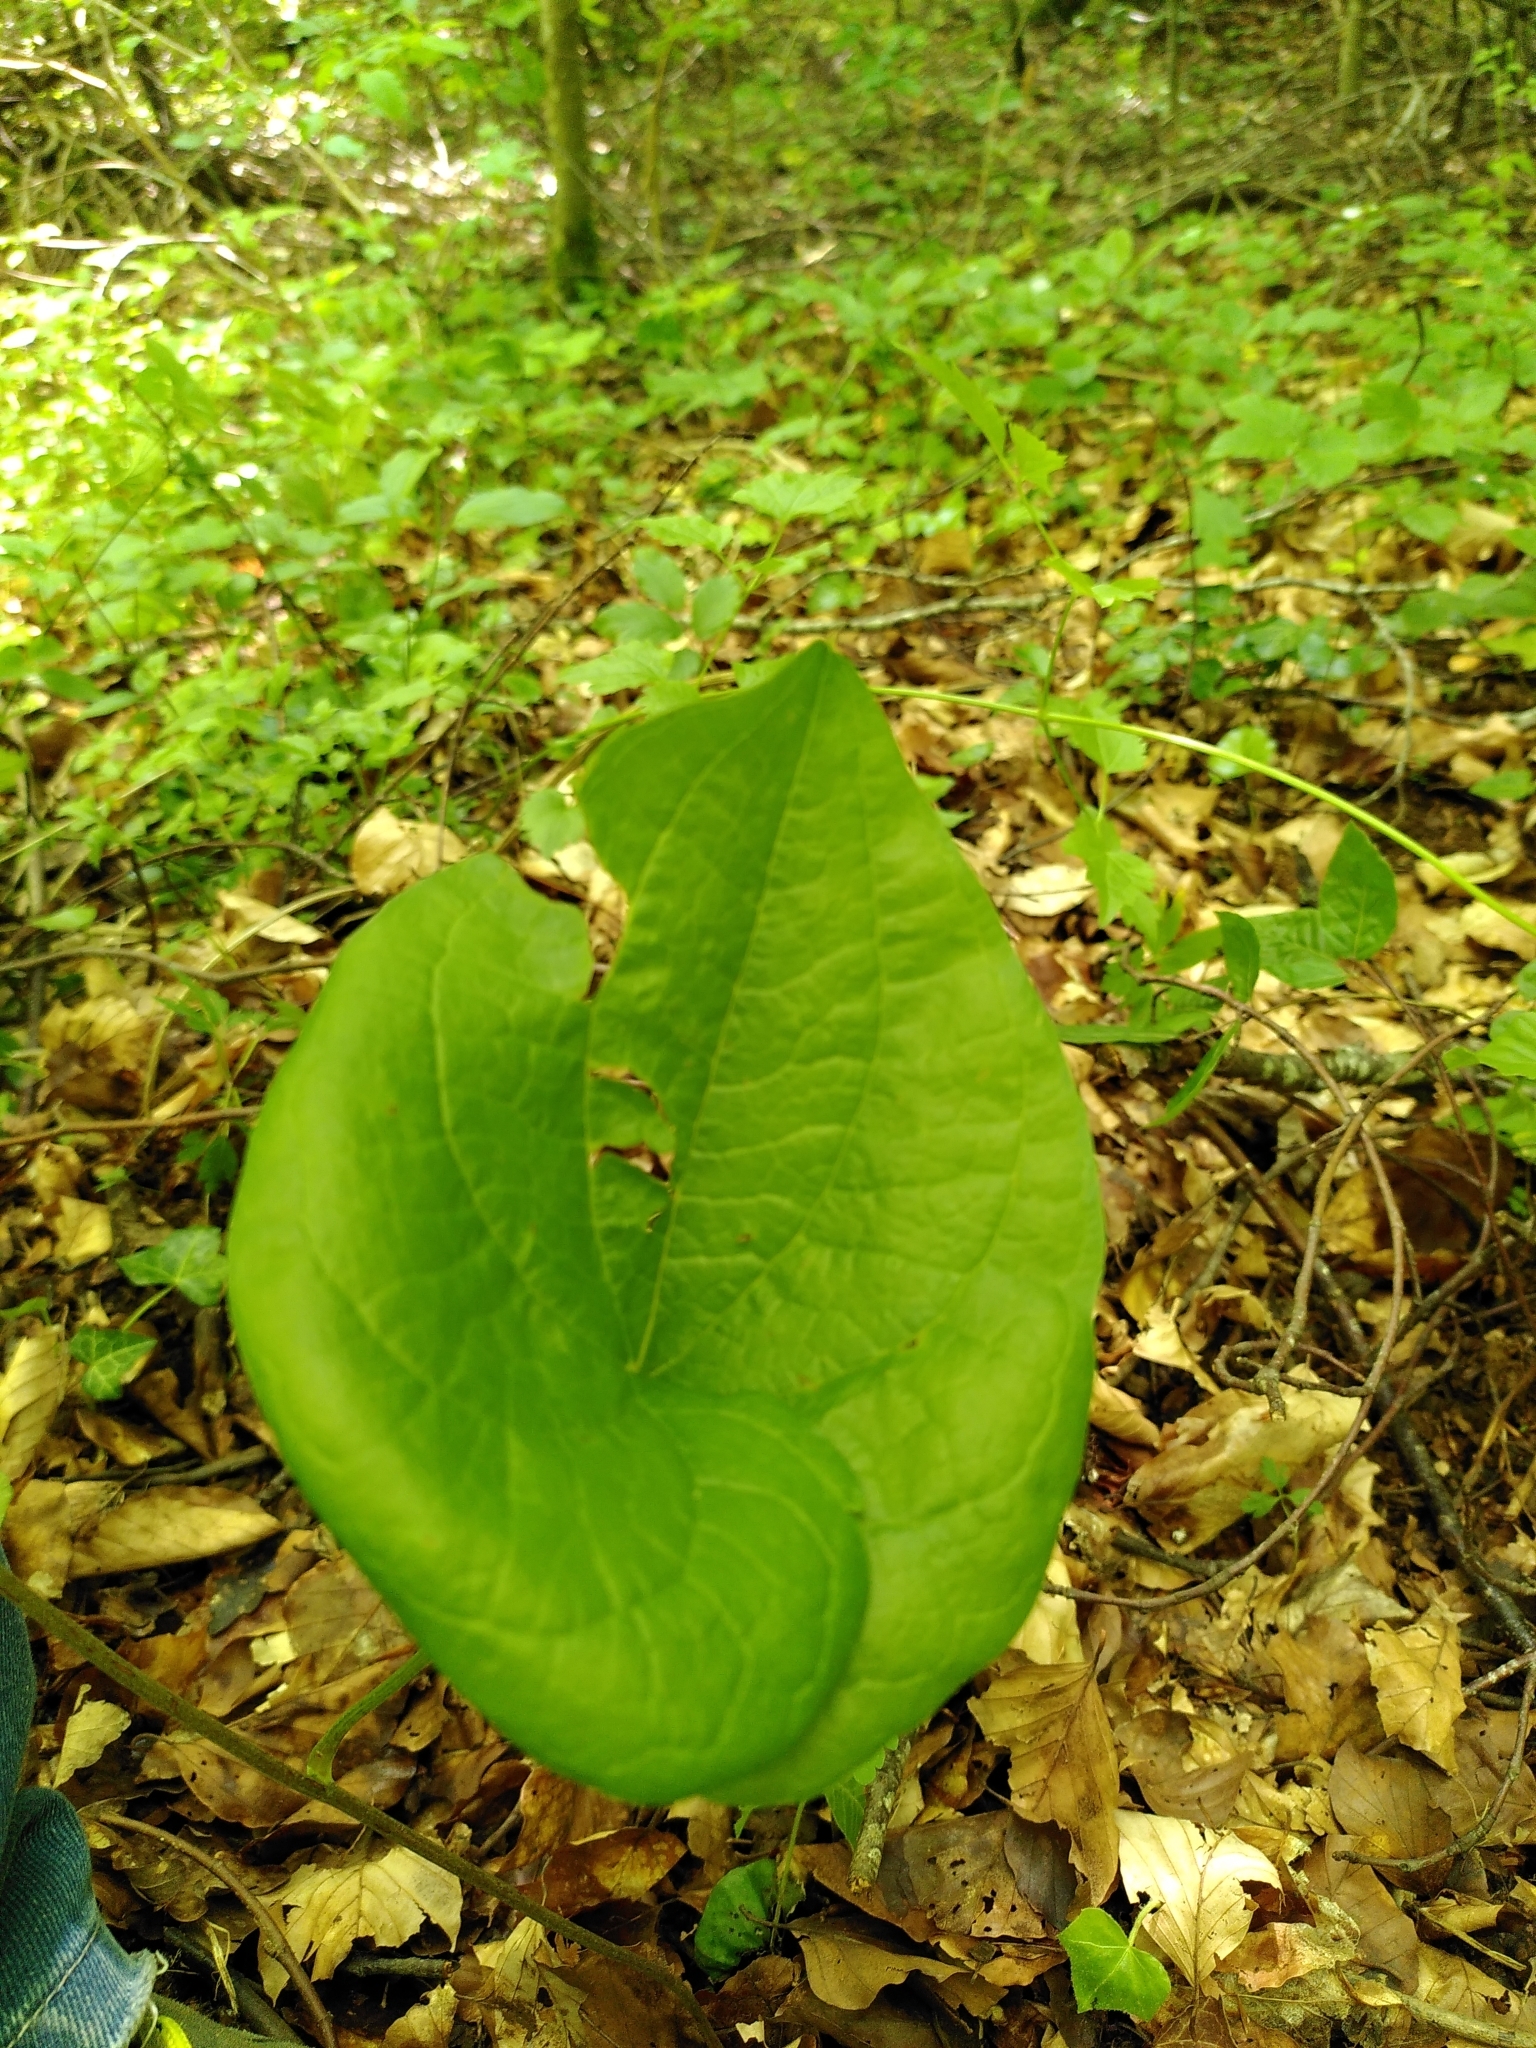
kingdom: Plantae
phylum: Tracheophyta
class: Magnoliopsida
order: Piperales
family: Aristolochiaceae
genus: Aristolochia
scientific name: Aristolochia clematitis
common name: Birthwort
